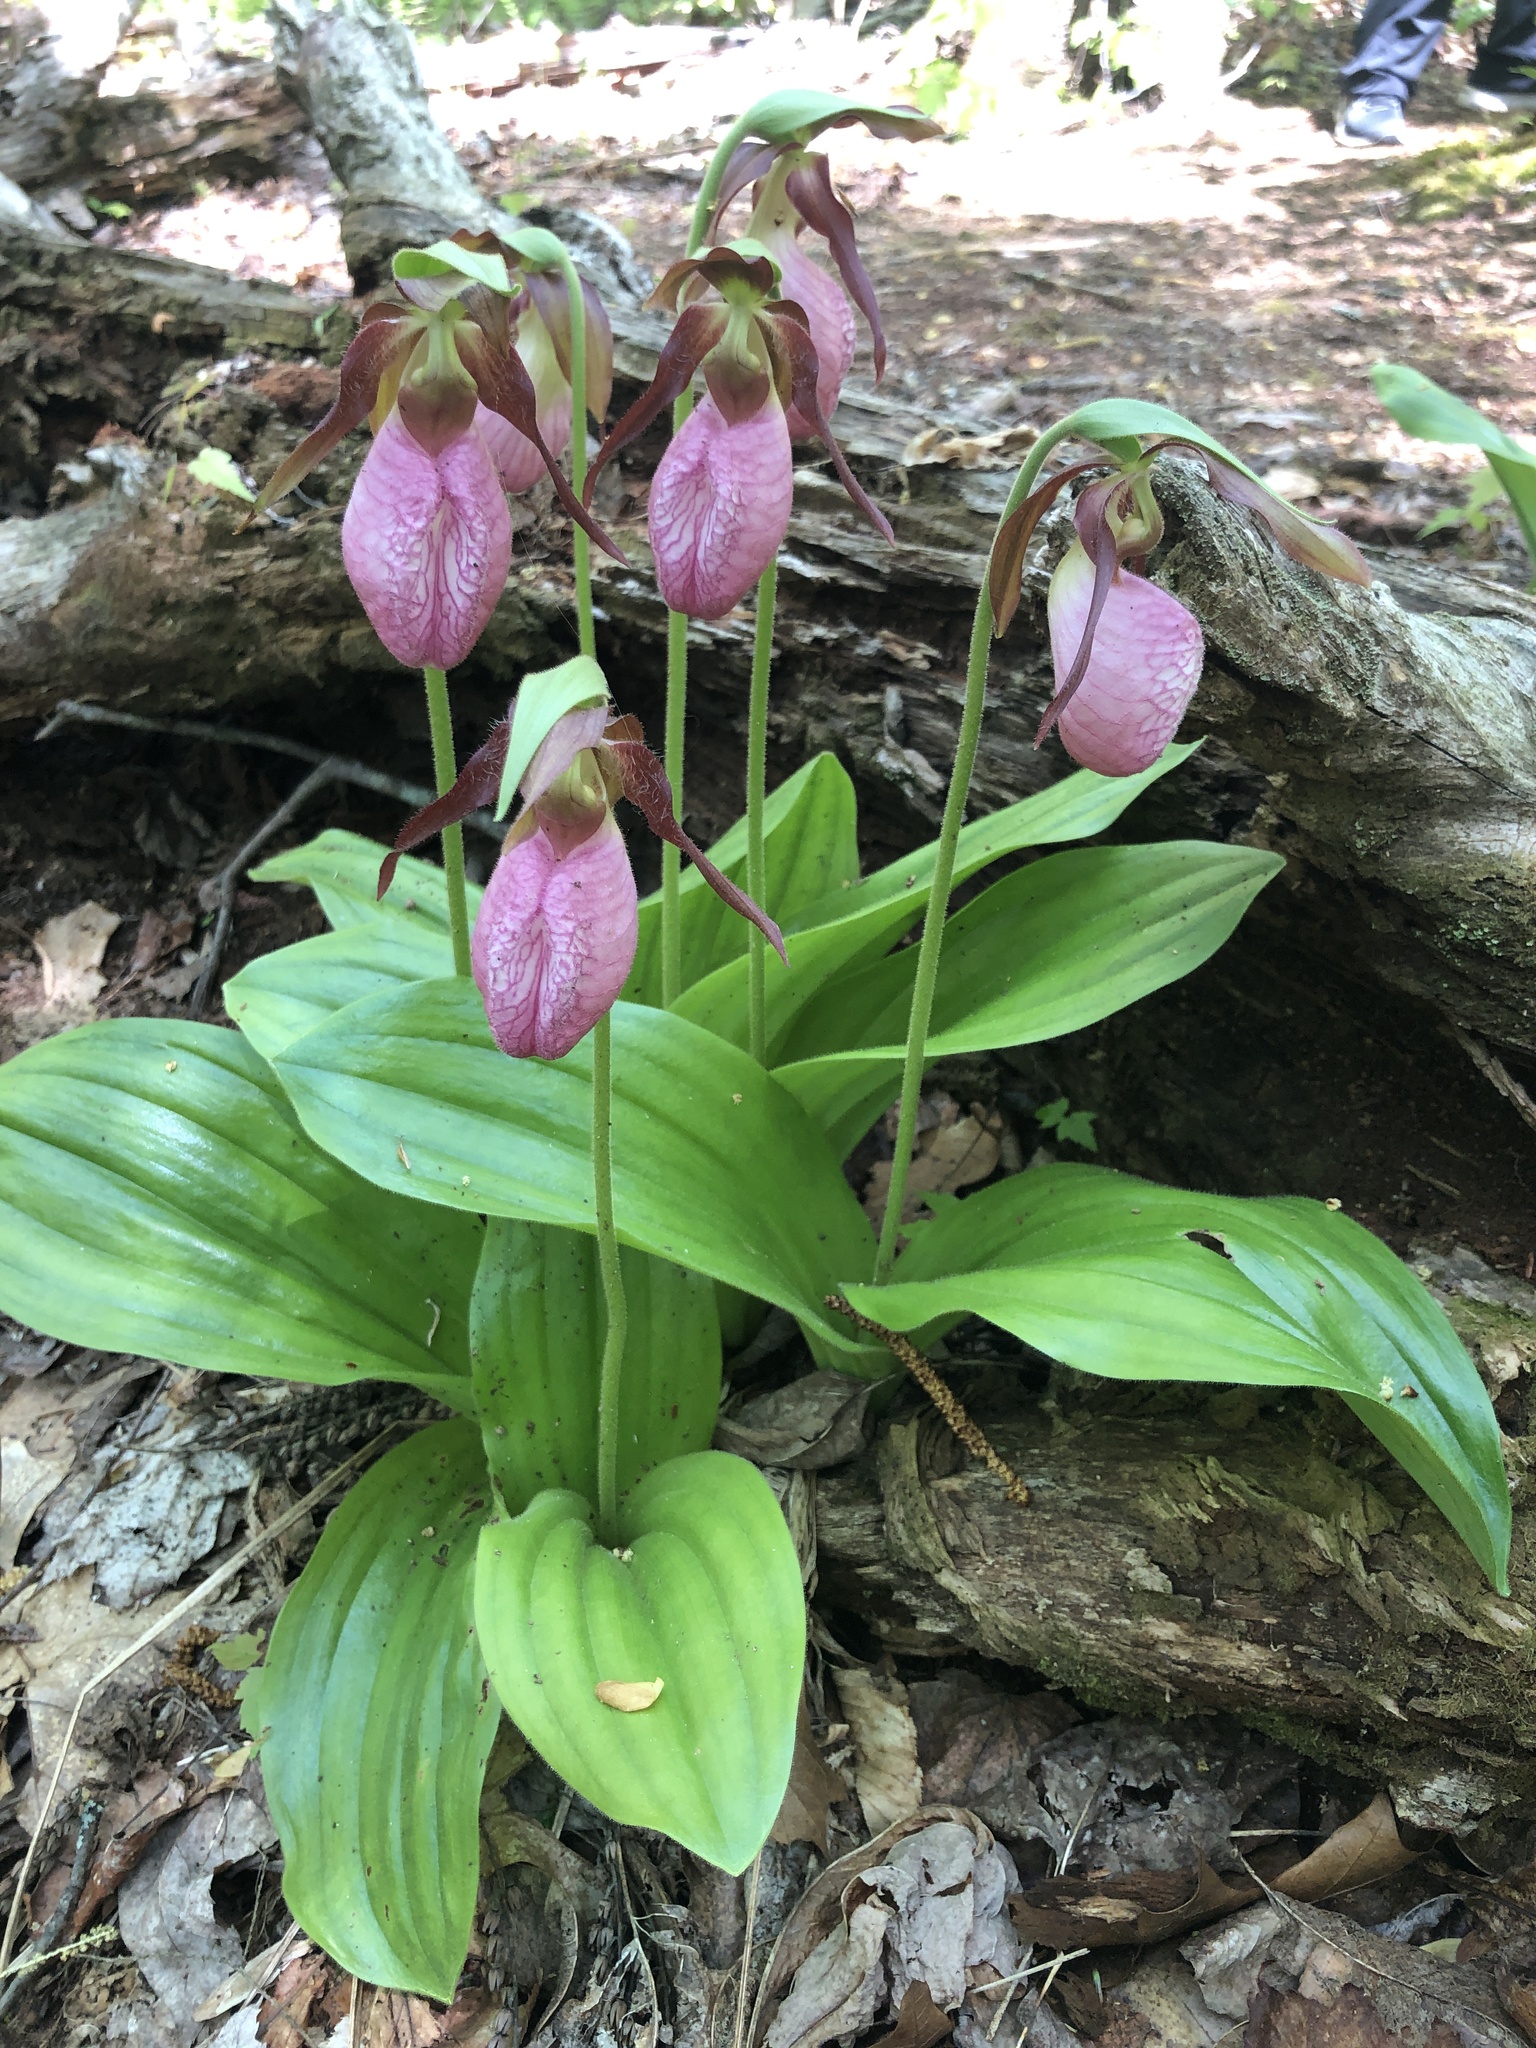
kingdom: Plantae
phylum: Tracheophyta
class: Liliopsida
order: Asparagales
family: Orchidaceae
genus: Cypripedium
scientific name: Cypripedium acaule
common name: Pink lady's-slipper
